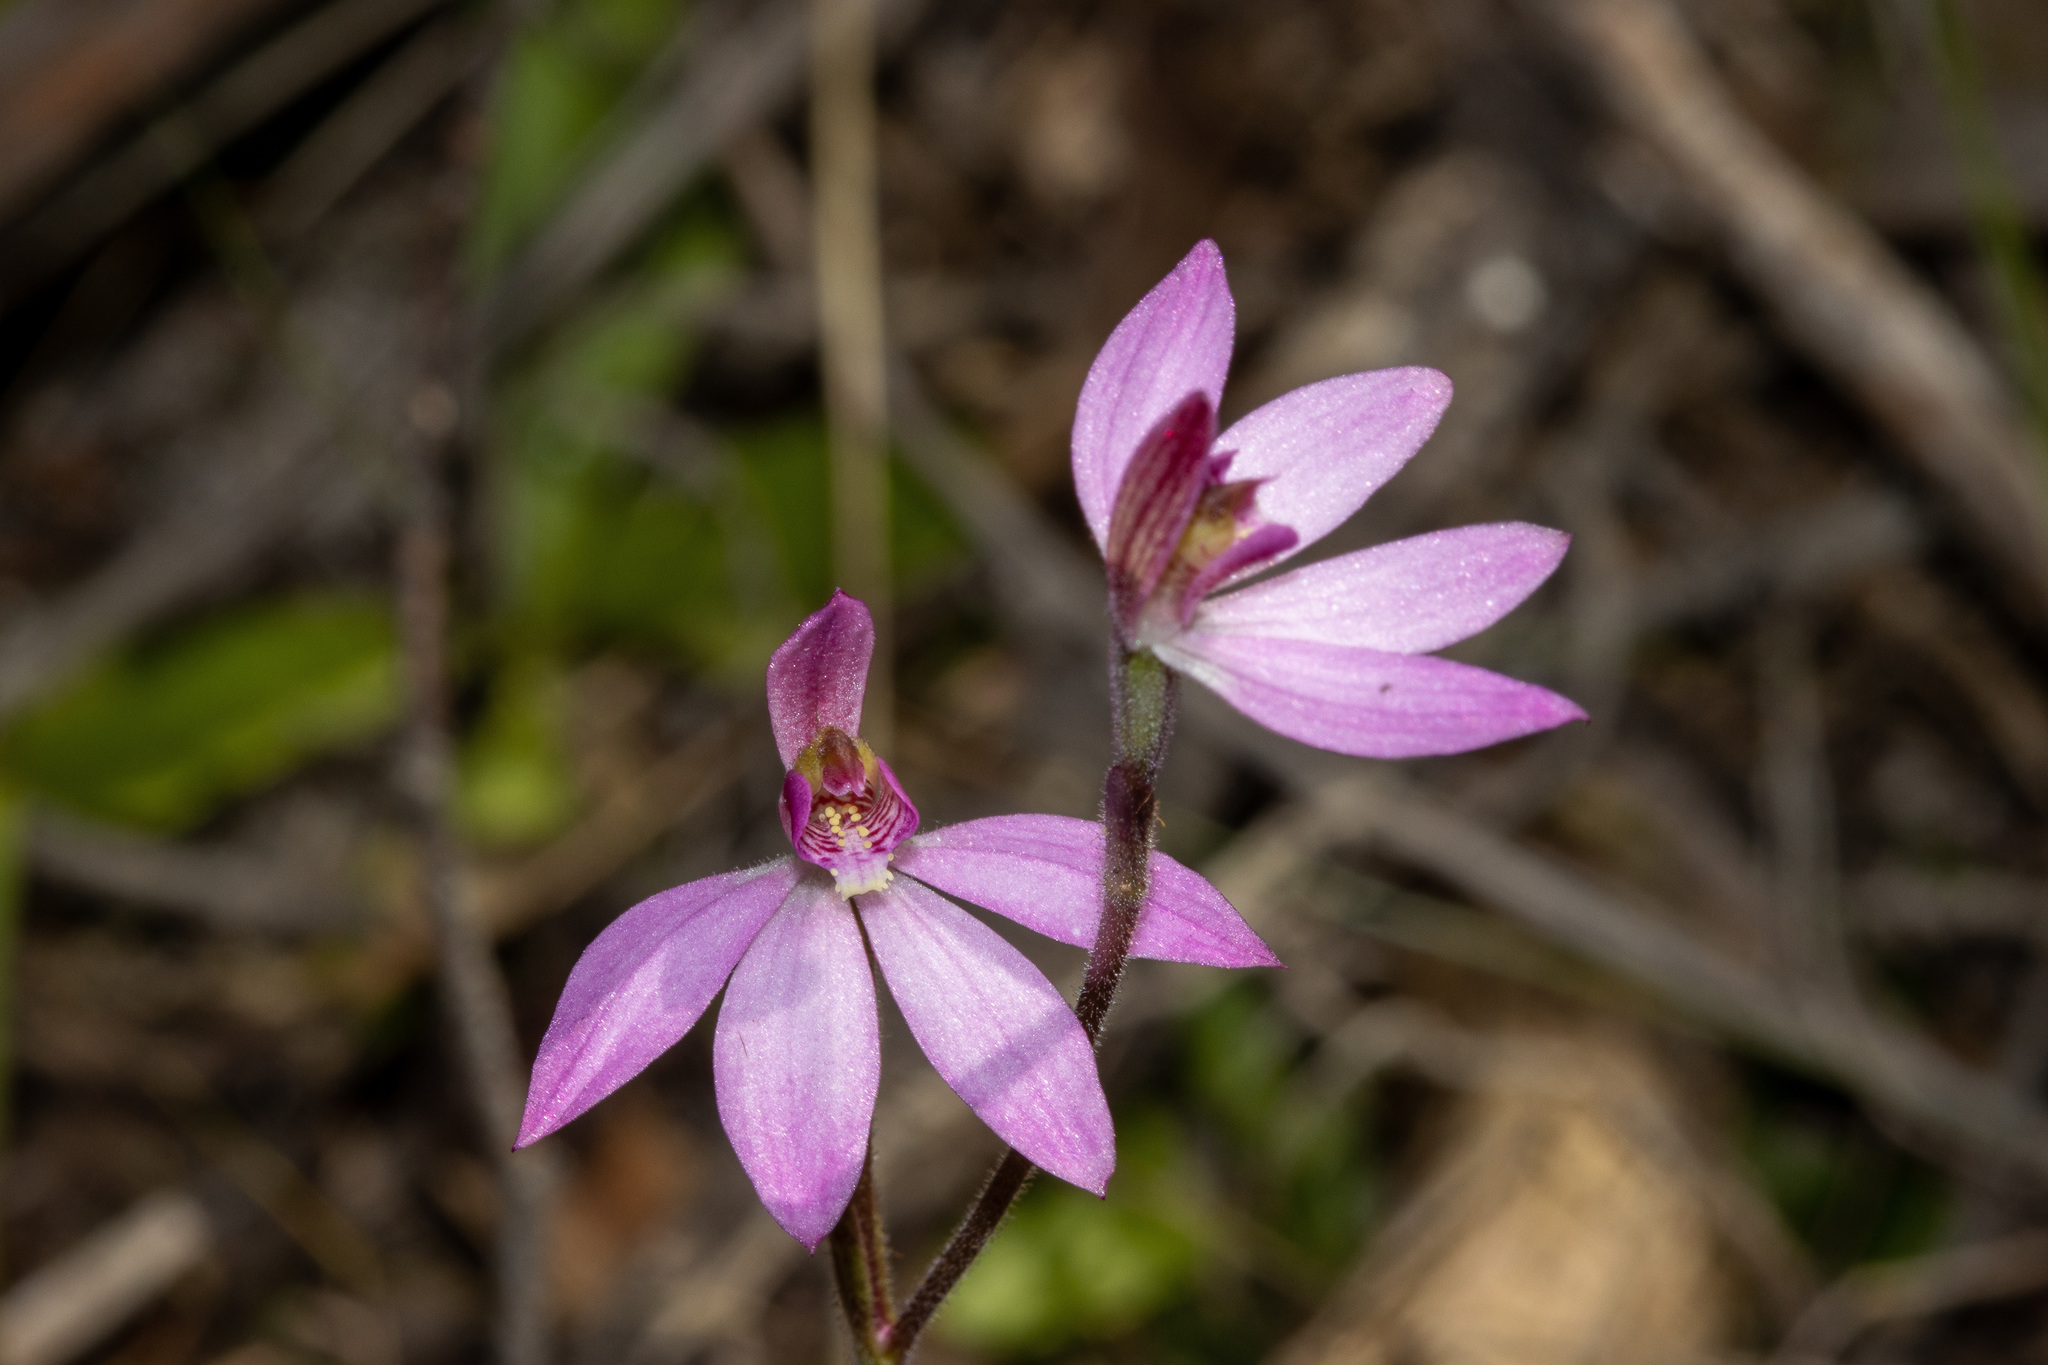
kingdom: Plantae
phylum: Tracheophyta
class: Liliopsida
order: Asparagales
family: Orchidaceae
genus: Caladenia
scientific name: Caladenia ornata
